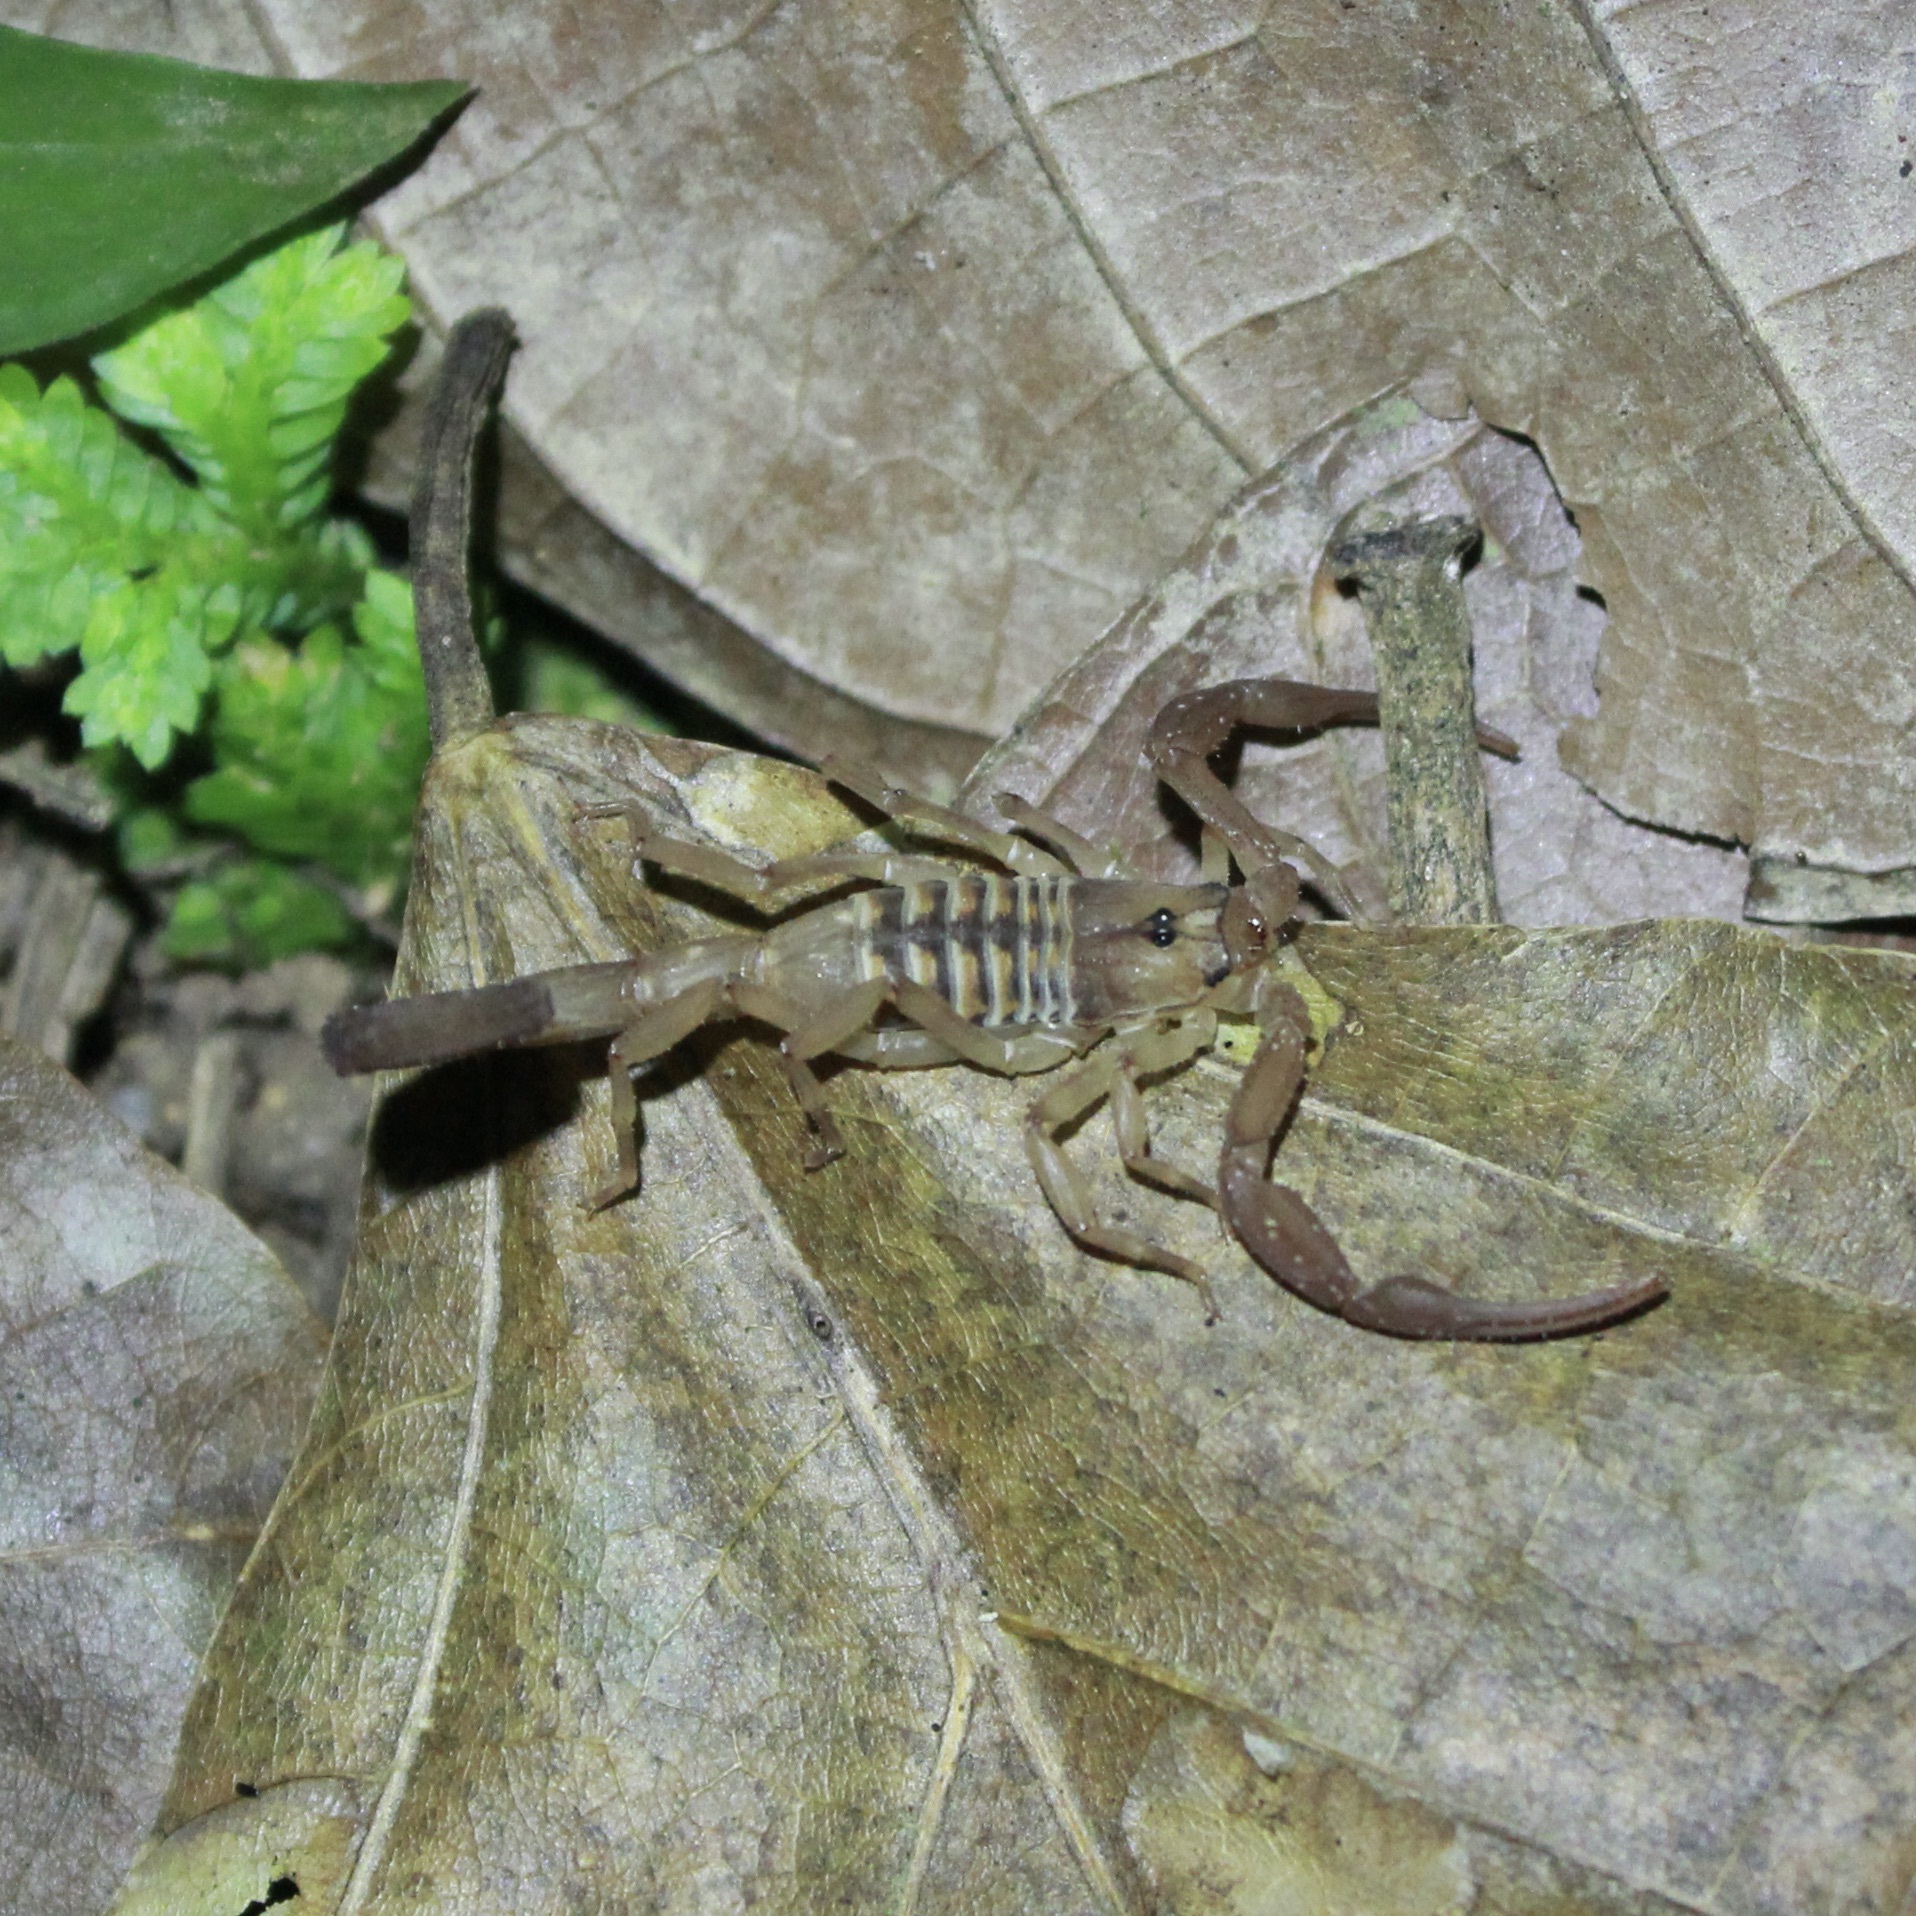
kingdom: Animalia
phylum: Arthropoda
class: Arachnida
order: Scorpiones
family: Buthidae
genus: Tityus
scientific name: Tityus trinitatis
